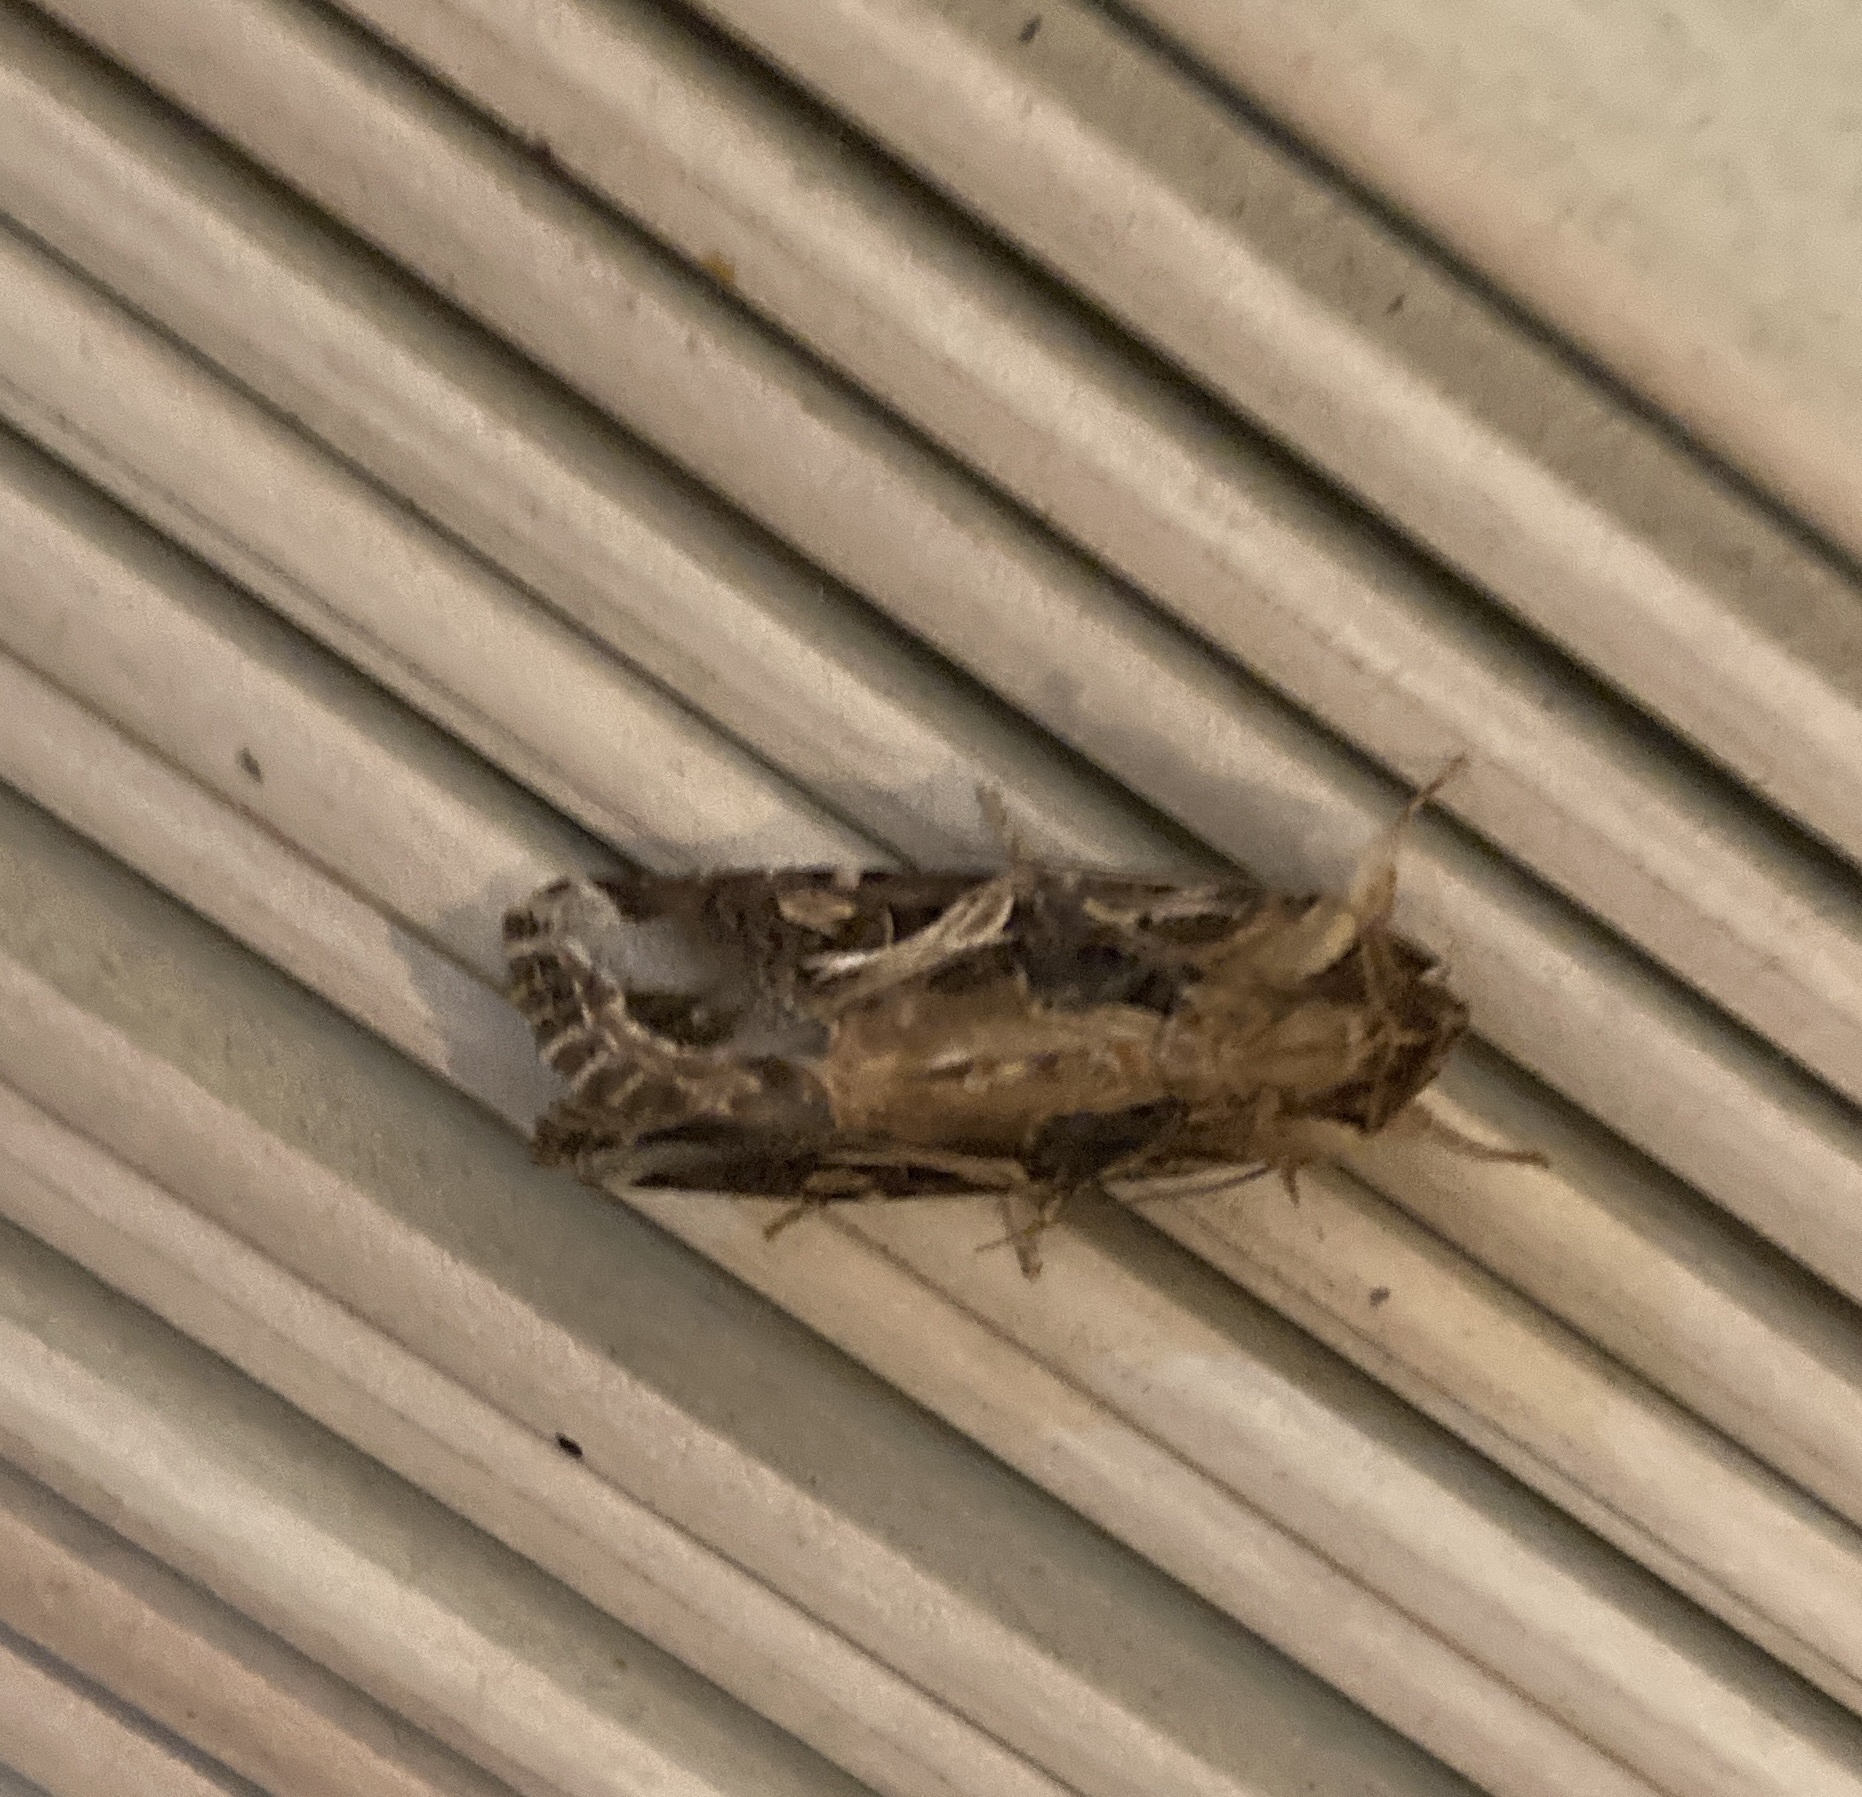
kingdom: Animalia
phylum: Arthropoda
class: Insecta
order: Lepidoptera
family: Noctuidae
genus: Spodoptera
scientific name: Spodoptera litura
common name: Asian cotton leafworm
